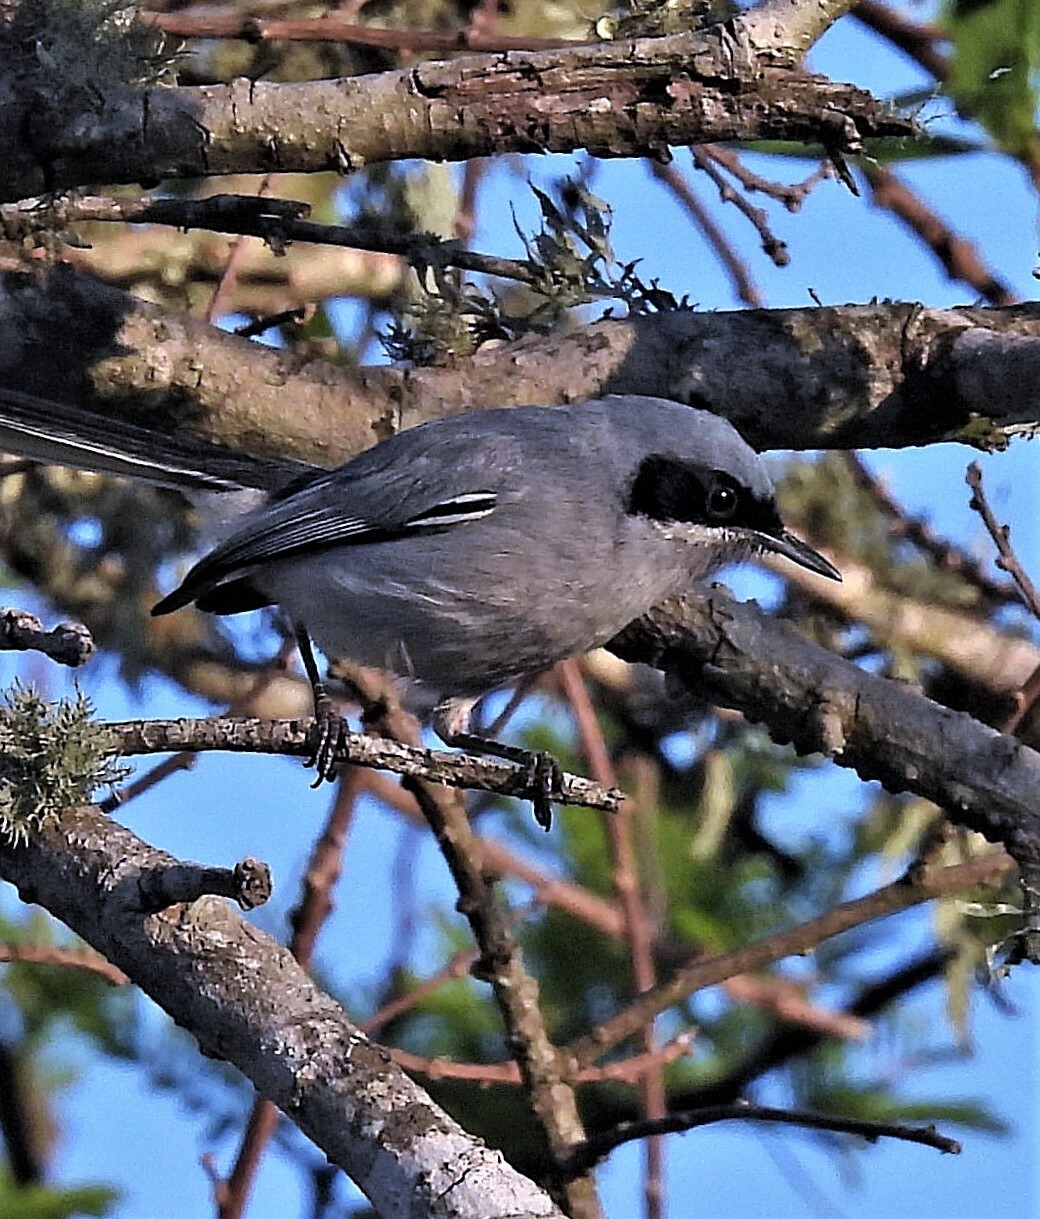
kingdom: Animalia
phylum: Chordata
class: Aves
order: Passeriformes
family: Polioptilidae
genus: Polioptila
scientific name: Polioptila dumicola
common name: Masked gnatcatcher
